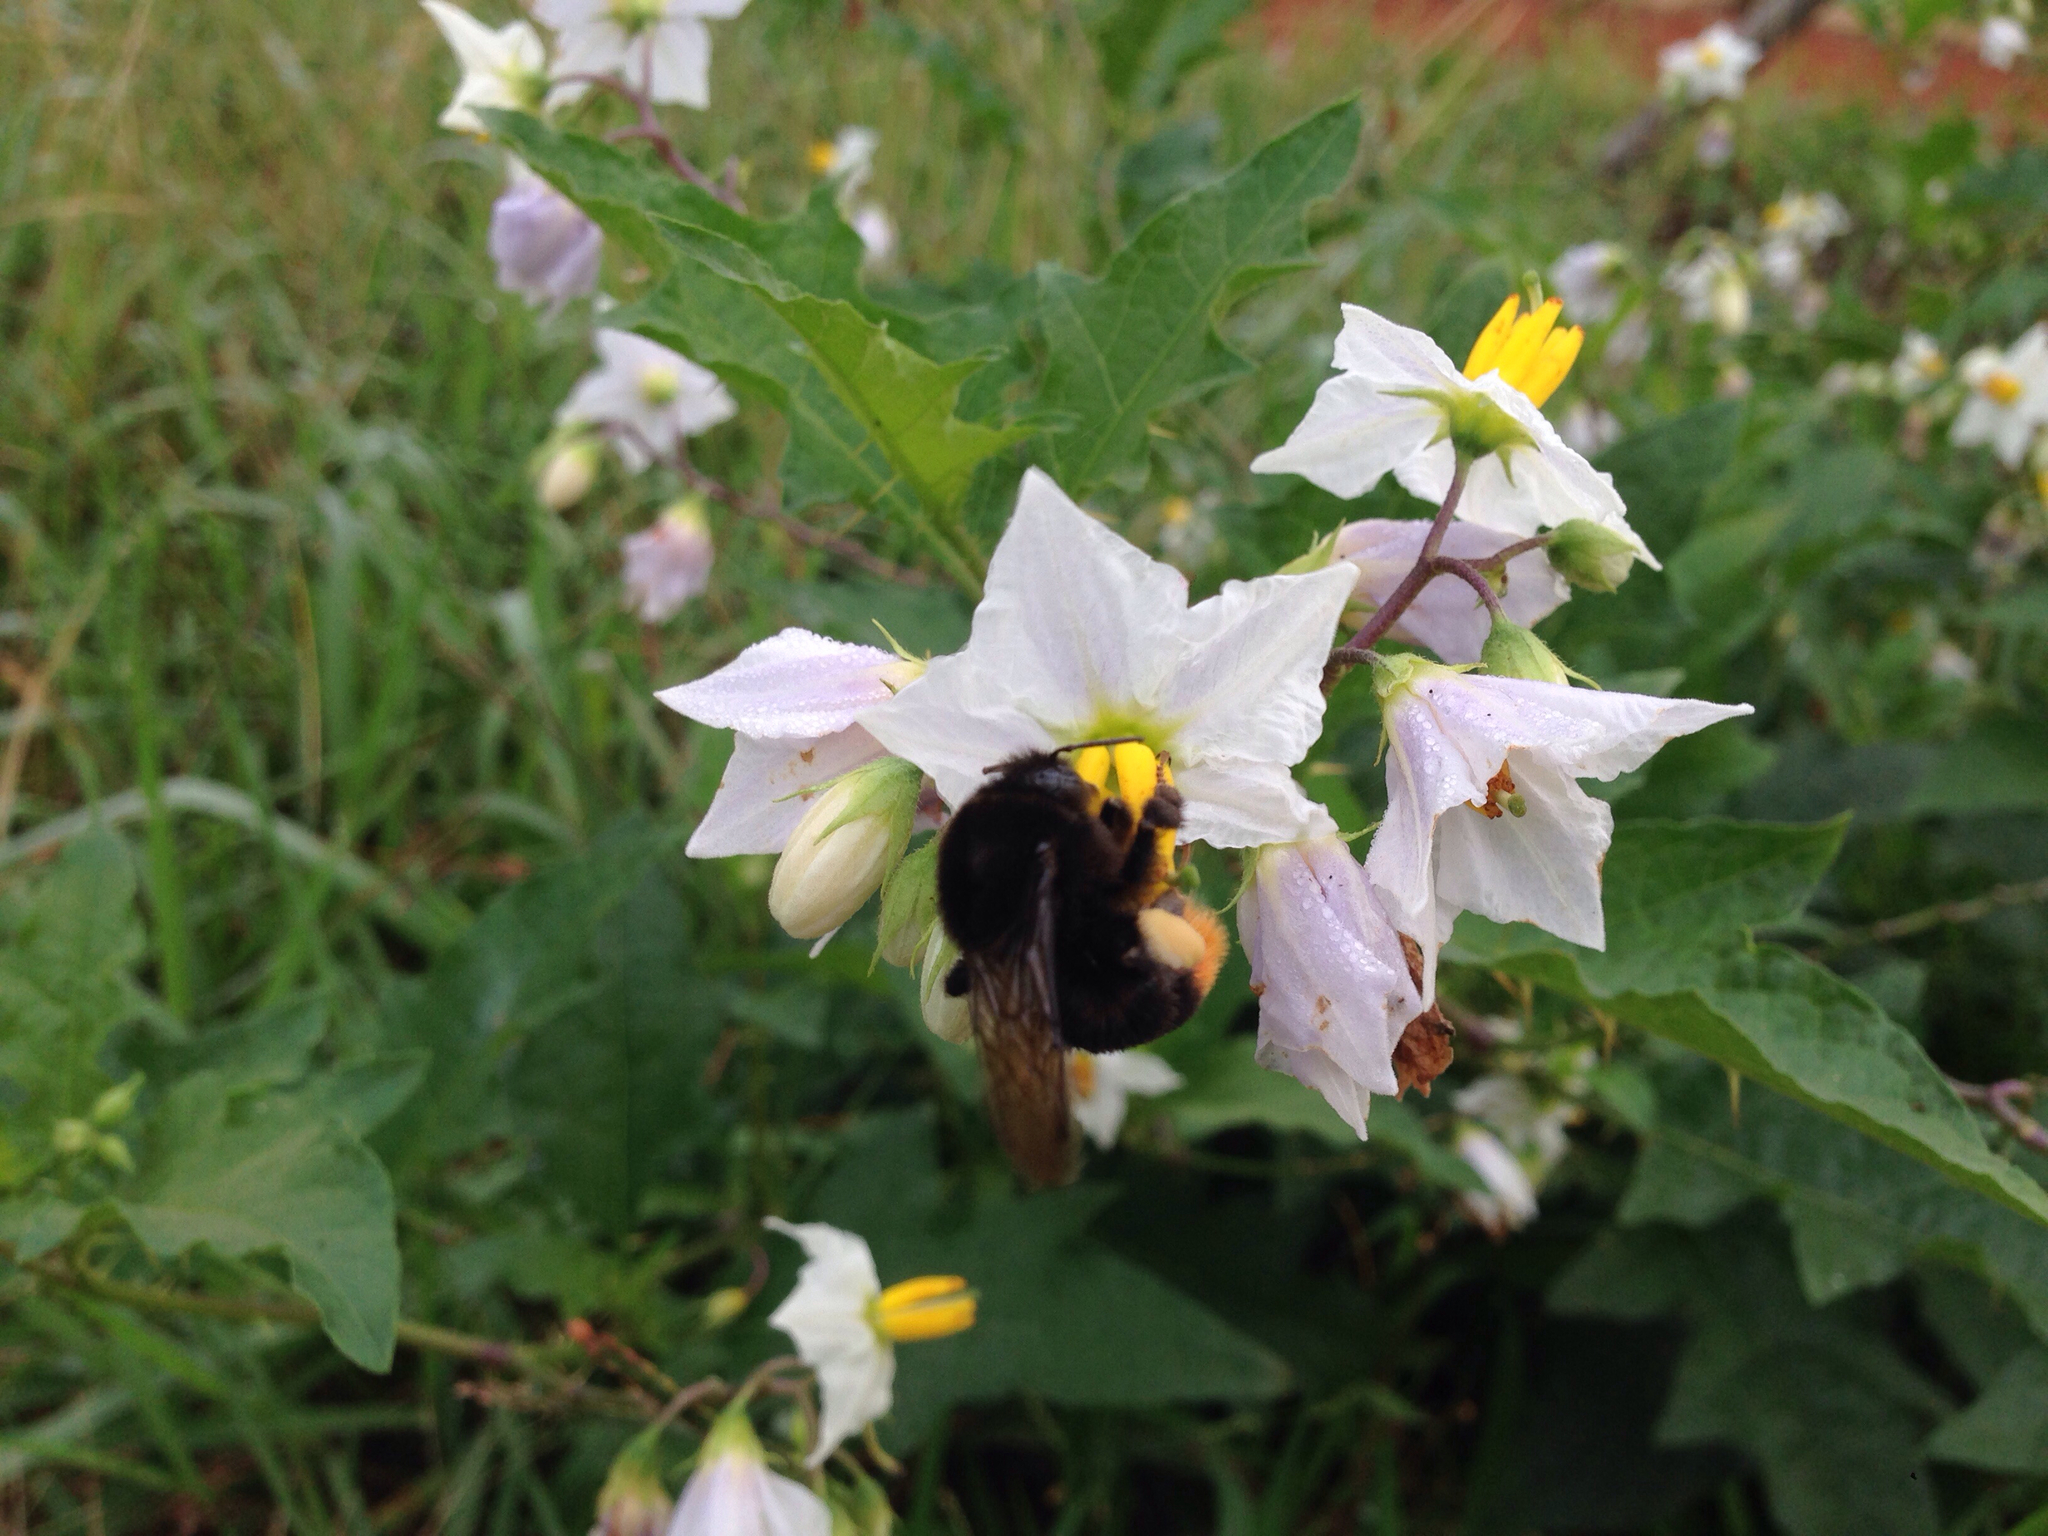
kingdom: Animalia
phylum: Arthropoda
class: Insecta
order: Hymenoptera
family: Apidae
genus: Bombus
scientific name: Bombus ignitus
